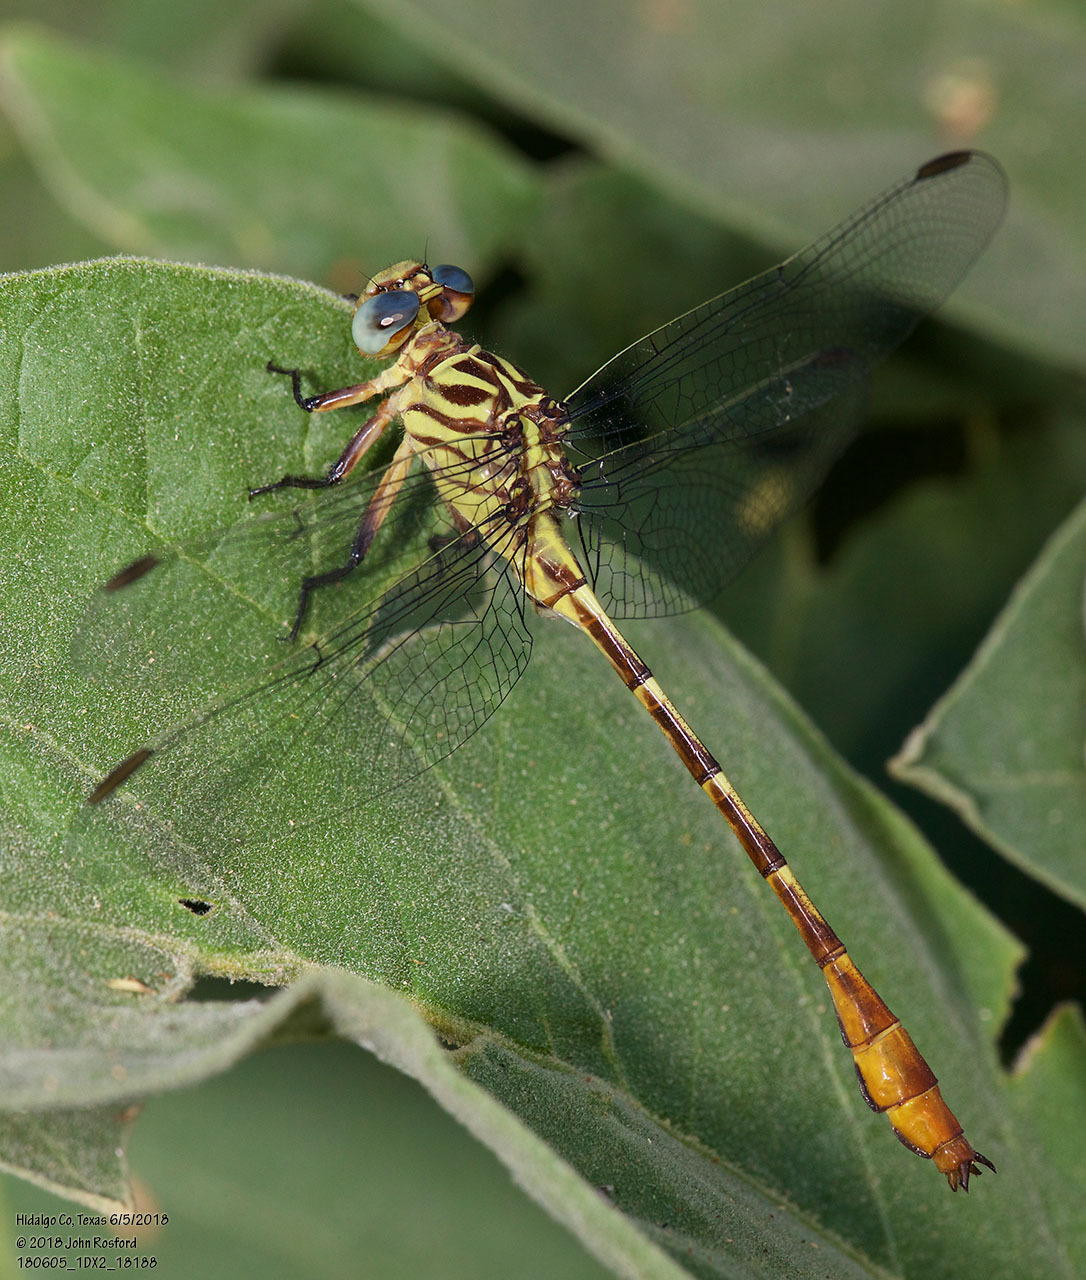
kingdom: Animalia
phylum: Arthropoda
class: Insecta
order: Odonata
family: Gomphidae
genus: Stylurus
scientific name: Stylurus plagiatus
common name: Russet-tipped clubtail
